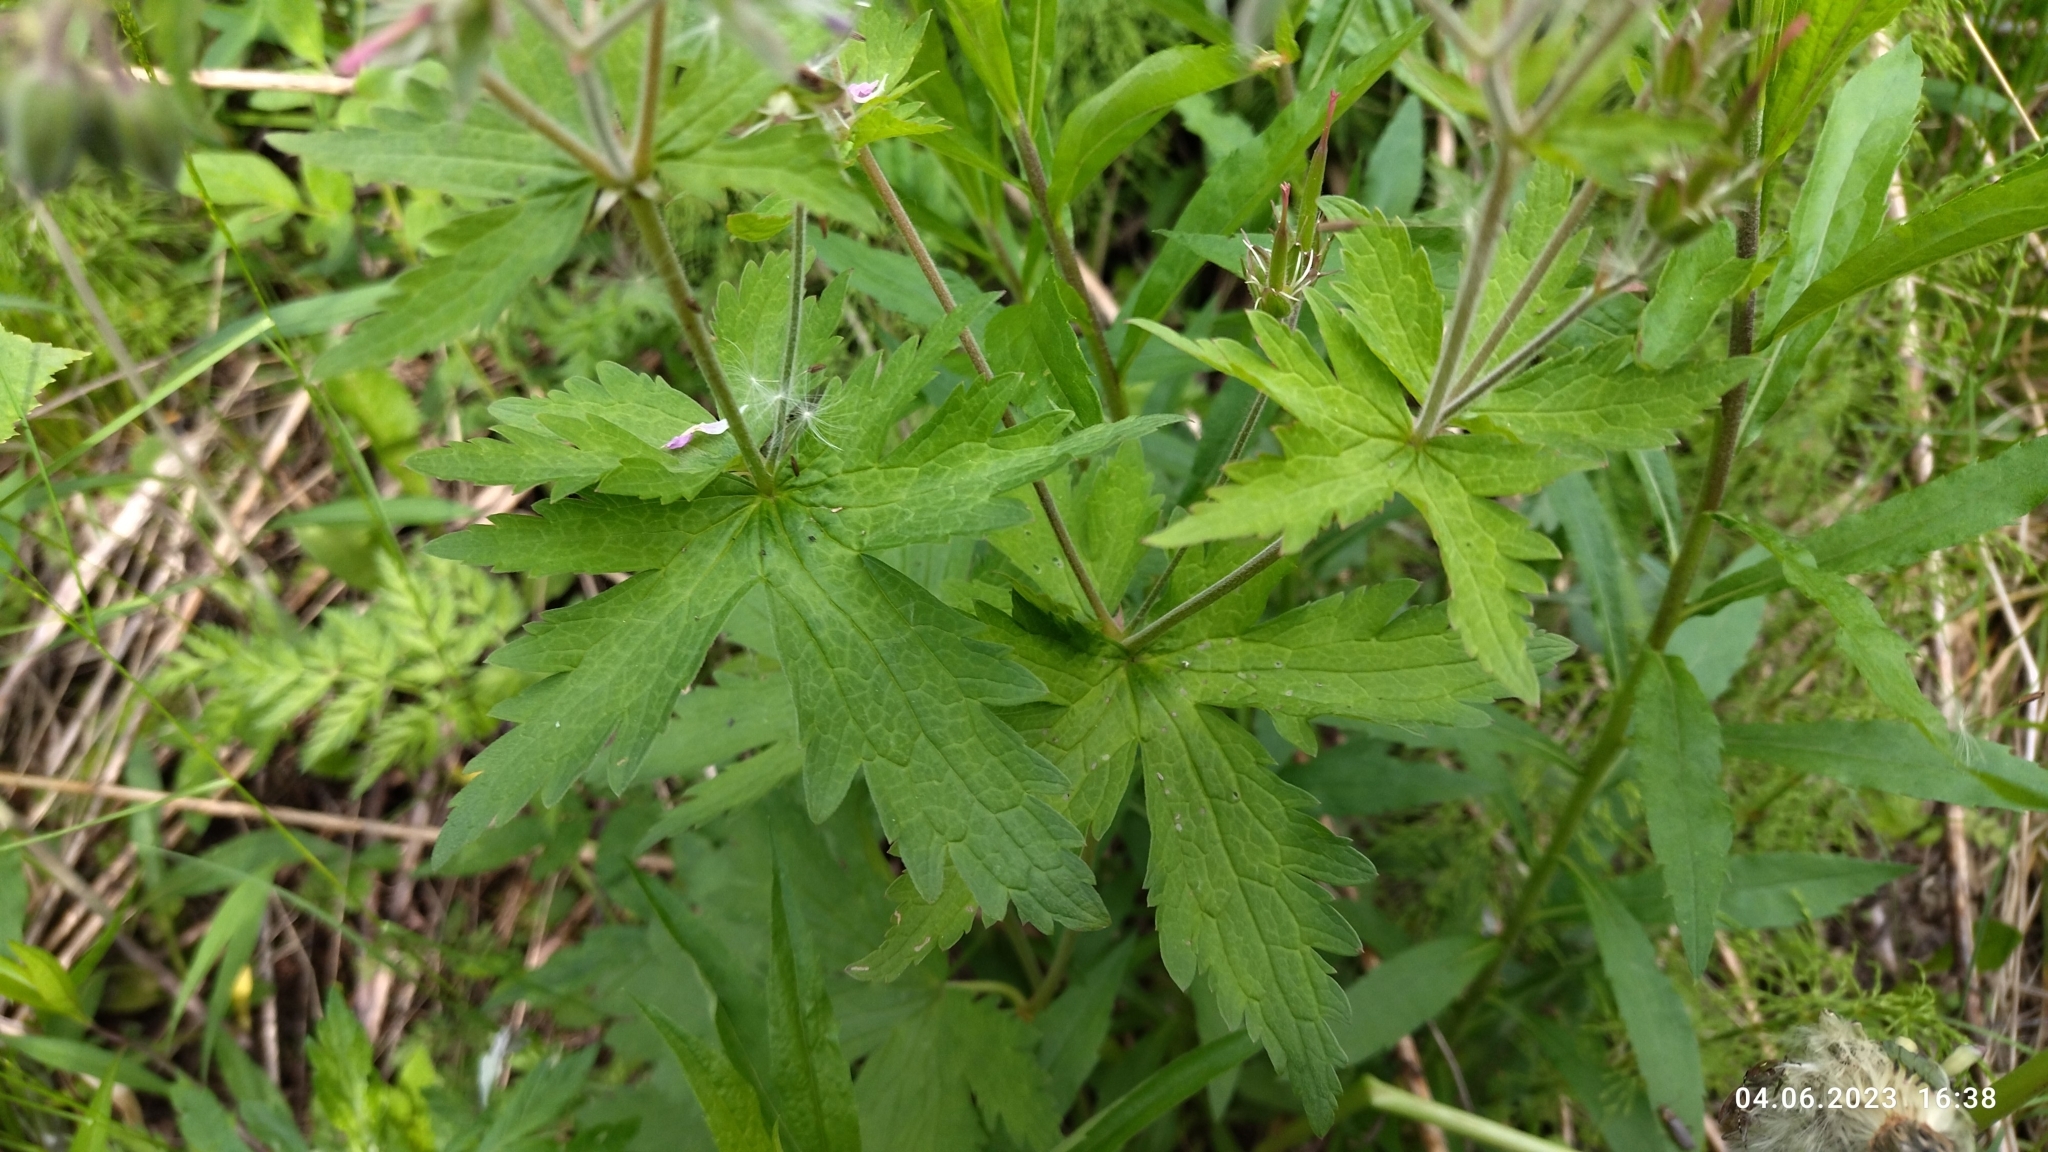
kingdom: Plantae
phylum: Tracheophyta
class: Magnoliopsida
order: Geraniales
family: Geraniaceae
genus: Geranium
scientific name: Geranium sylvaticum
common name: Wood crane's-bill
